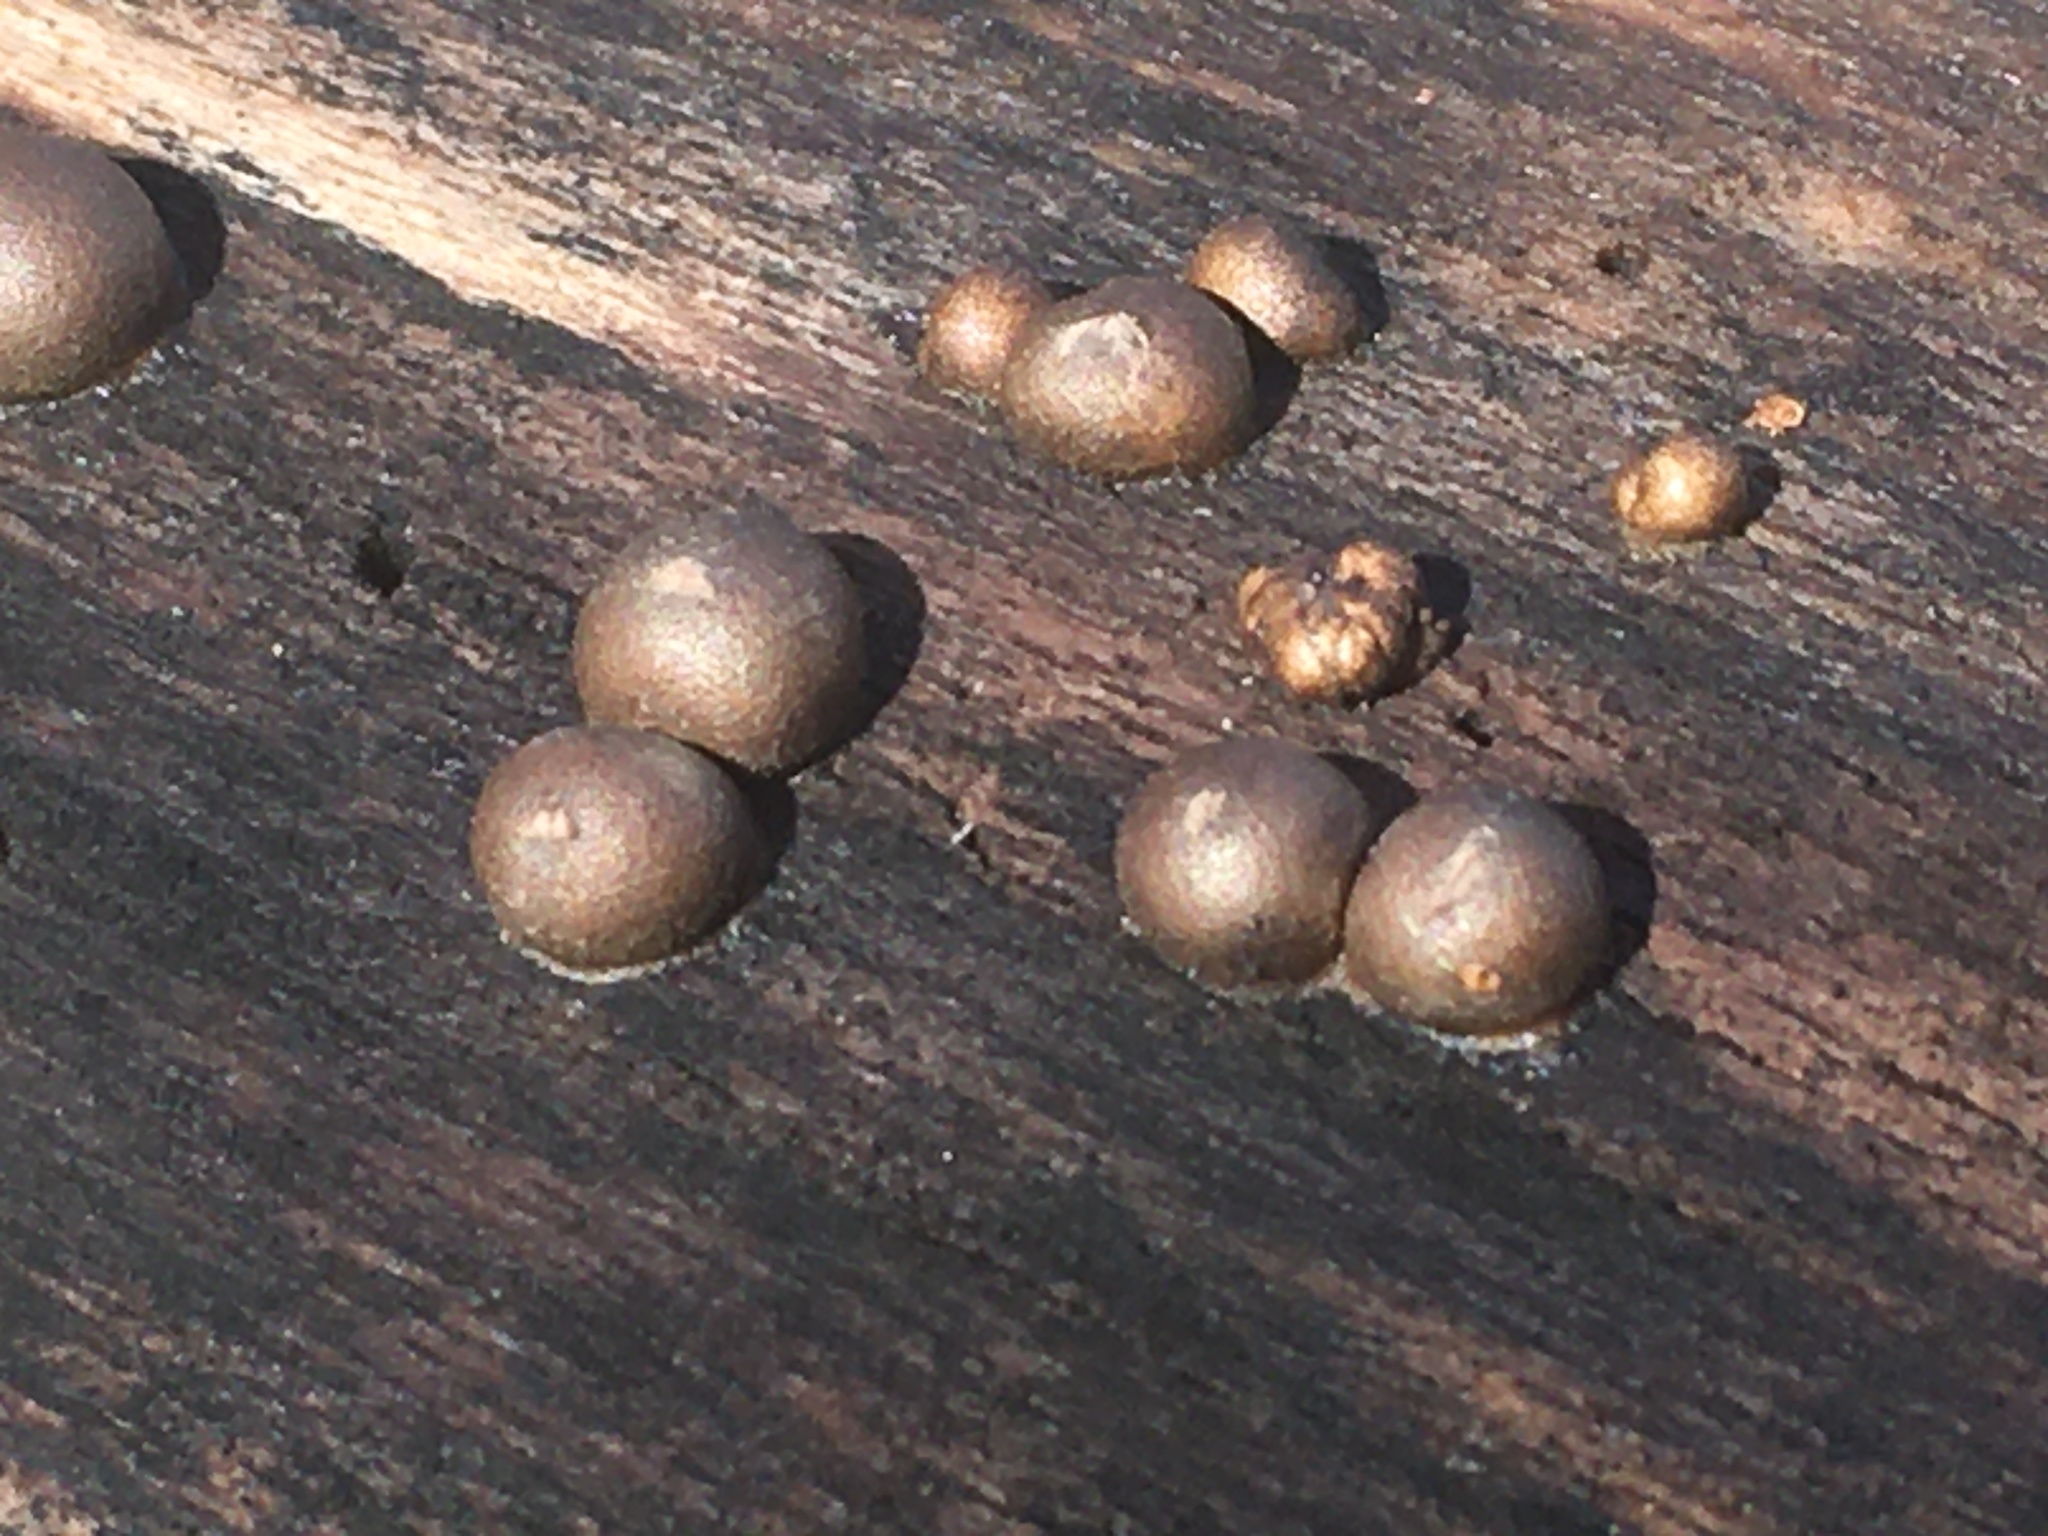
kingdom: Protozoa
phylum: Mycetozoa
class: Myxomycetes
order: Cribrariales
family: Tubiferaceae
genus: Lycogala
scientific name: Lycogala epidendrum
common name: Wolf's milk
